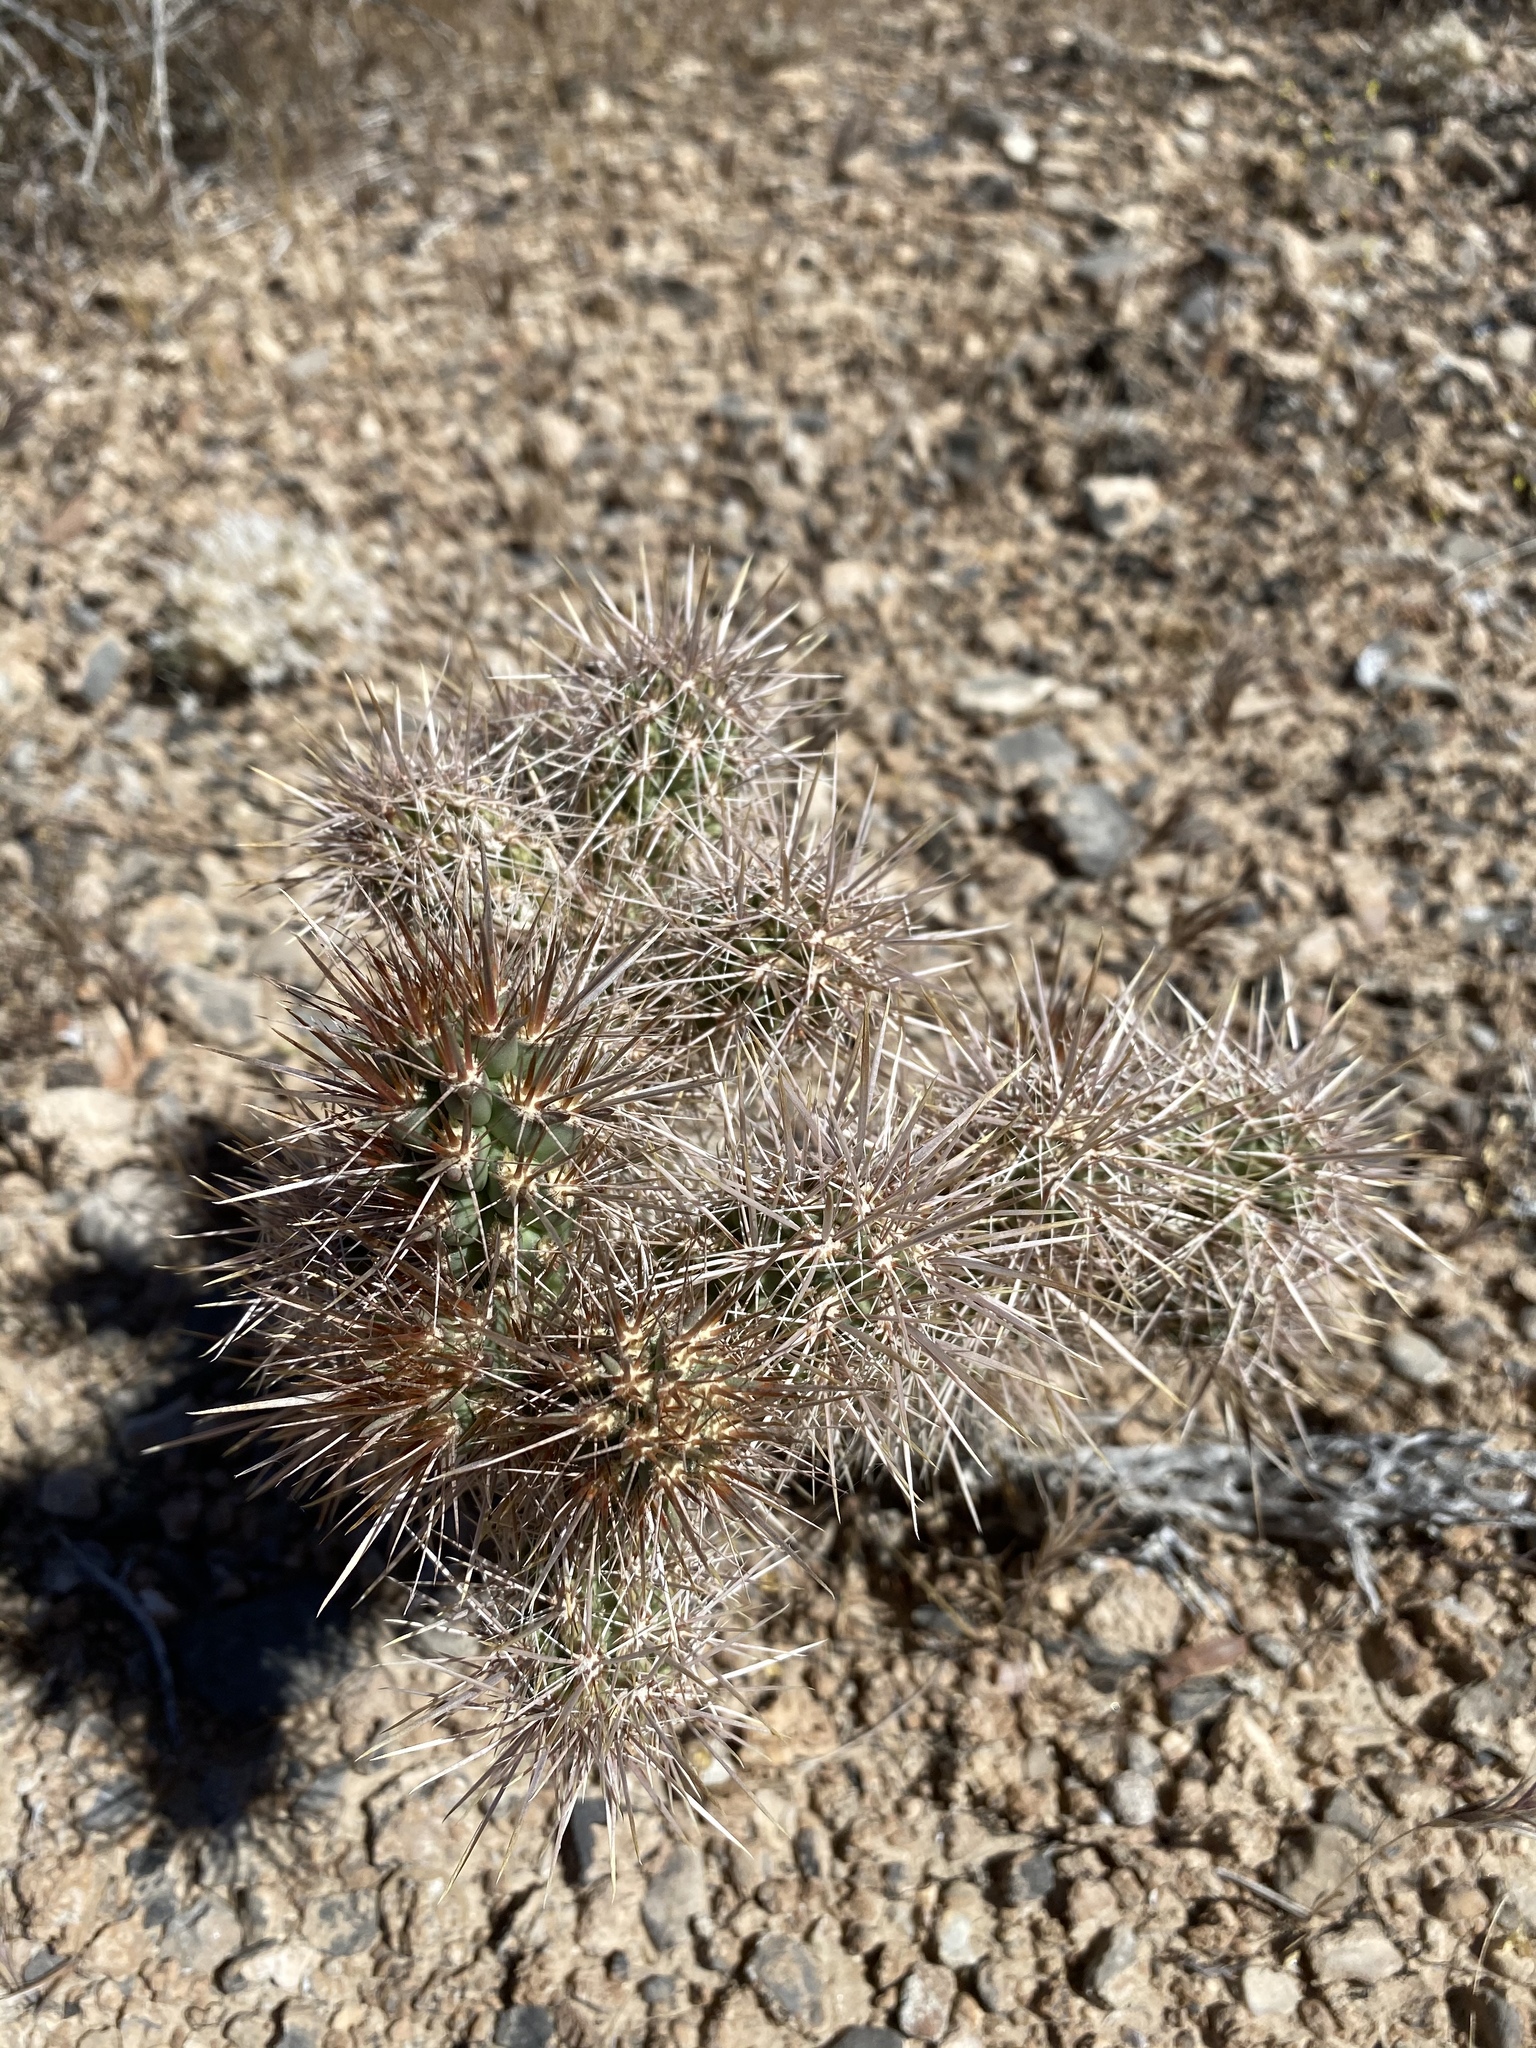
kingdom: Plantae
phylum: Tracheophyta
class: Magnoliopsida
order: Caryophyllales
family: Cactaceae
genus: Cylindropuntia
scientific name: Cylindropuntia echinocarpa
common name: Ground cholla
